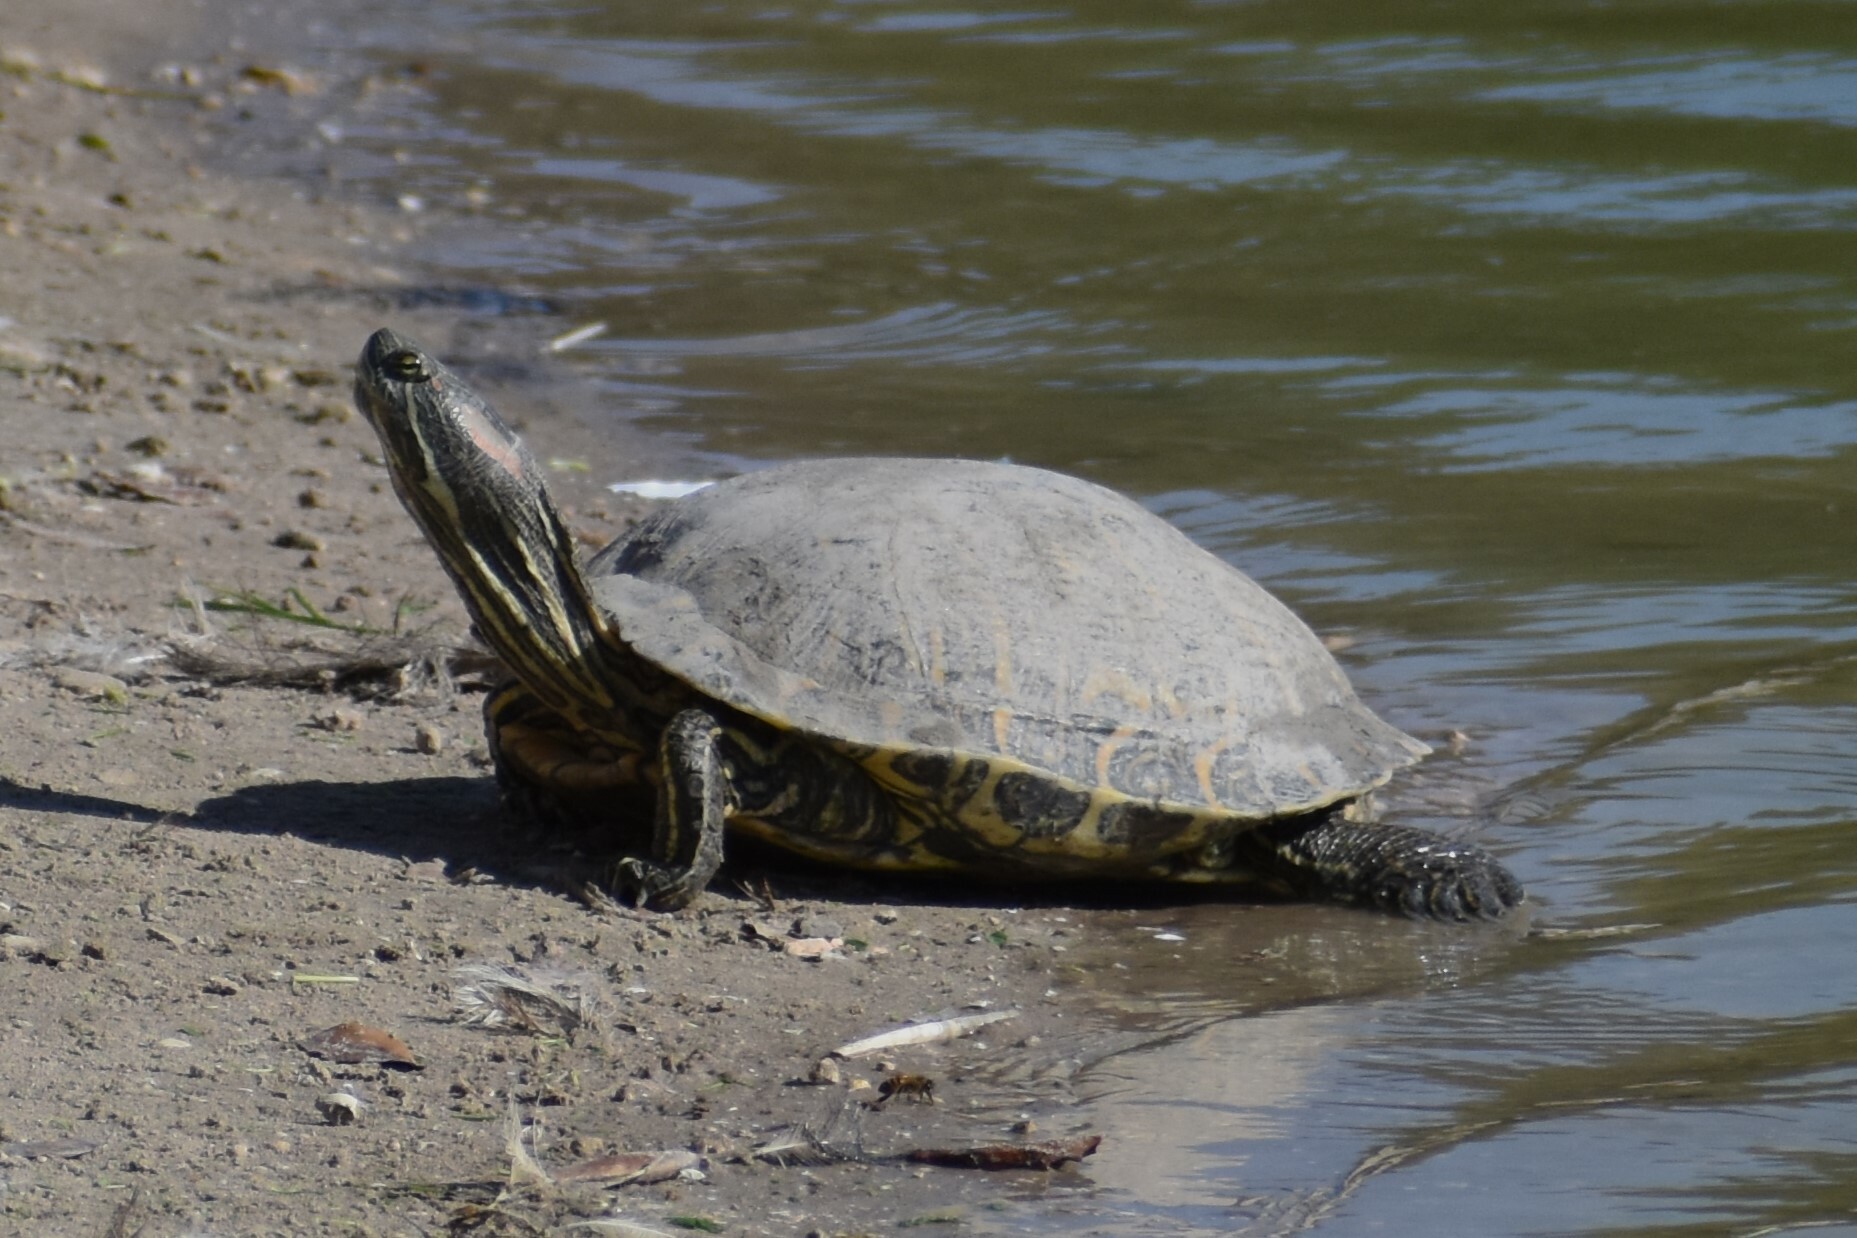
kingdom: Animalia
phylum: Chordata
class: Testudines
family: Emydidae
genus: Trachemys
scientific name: Trachemys scripta
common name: Slider
